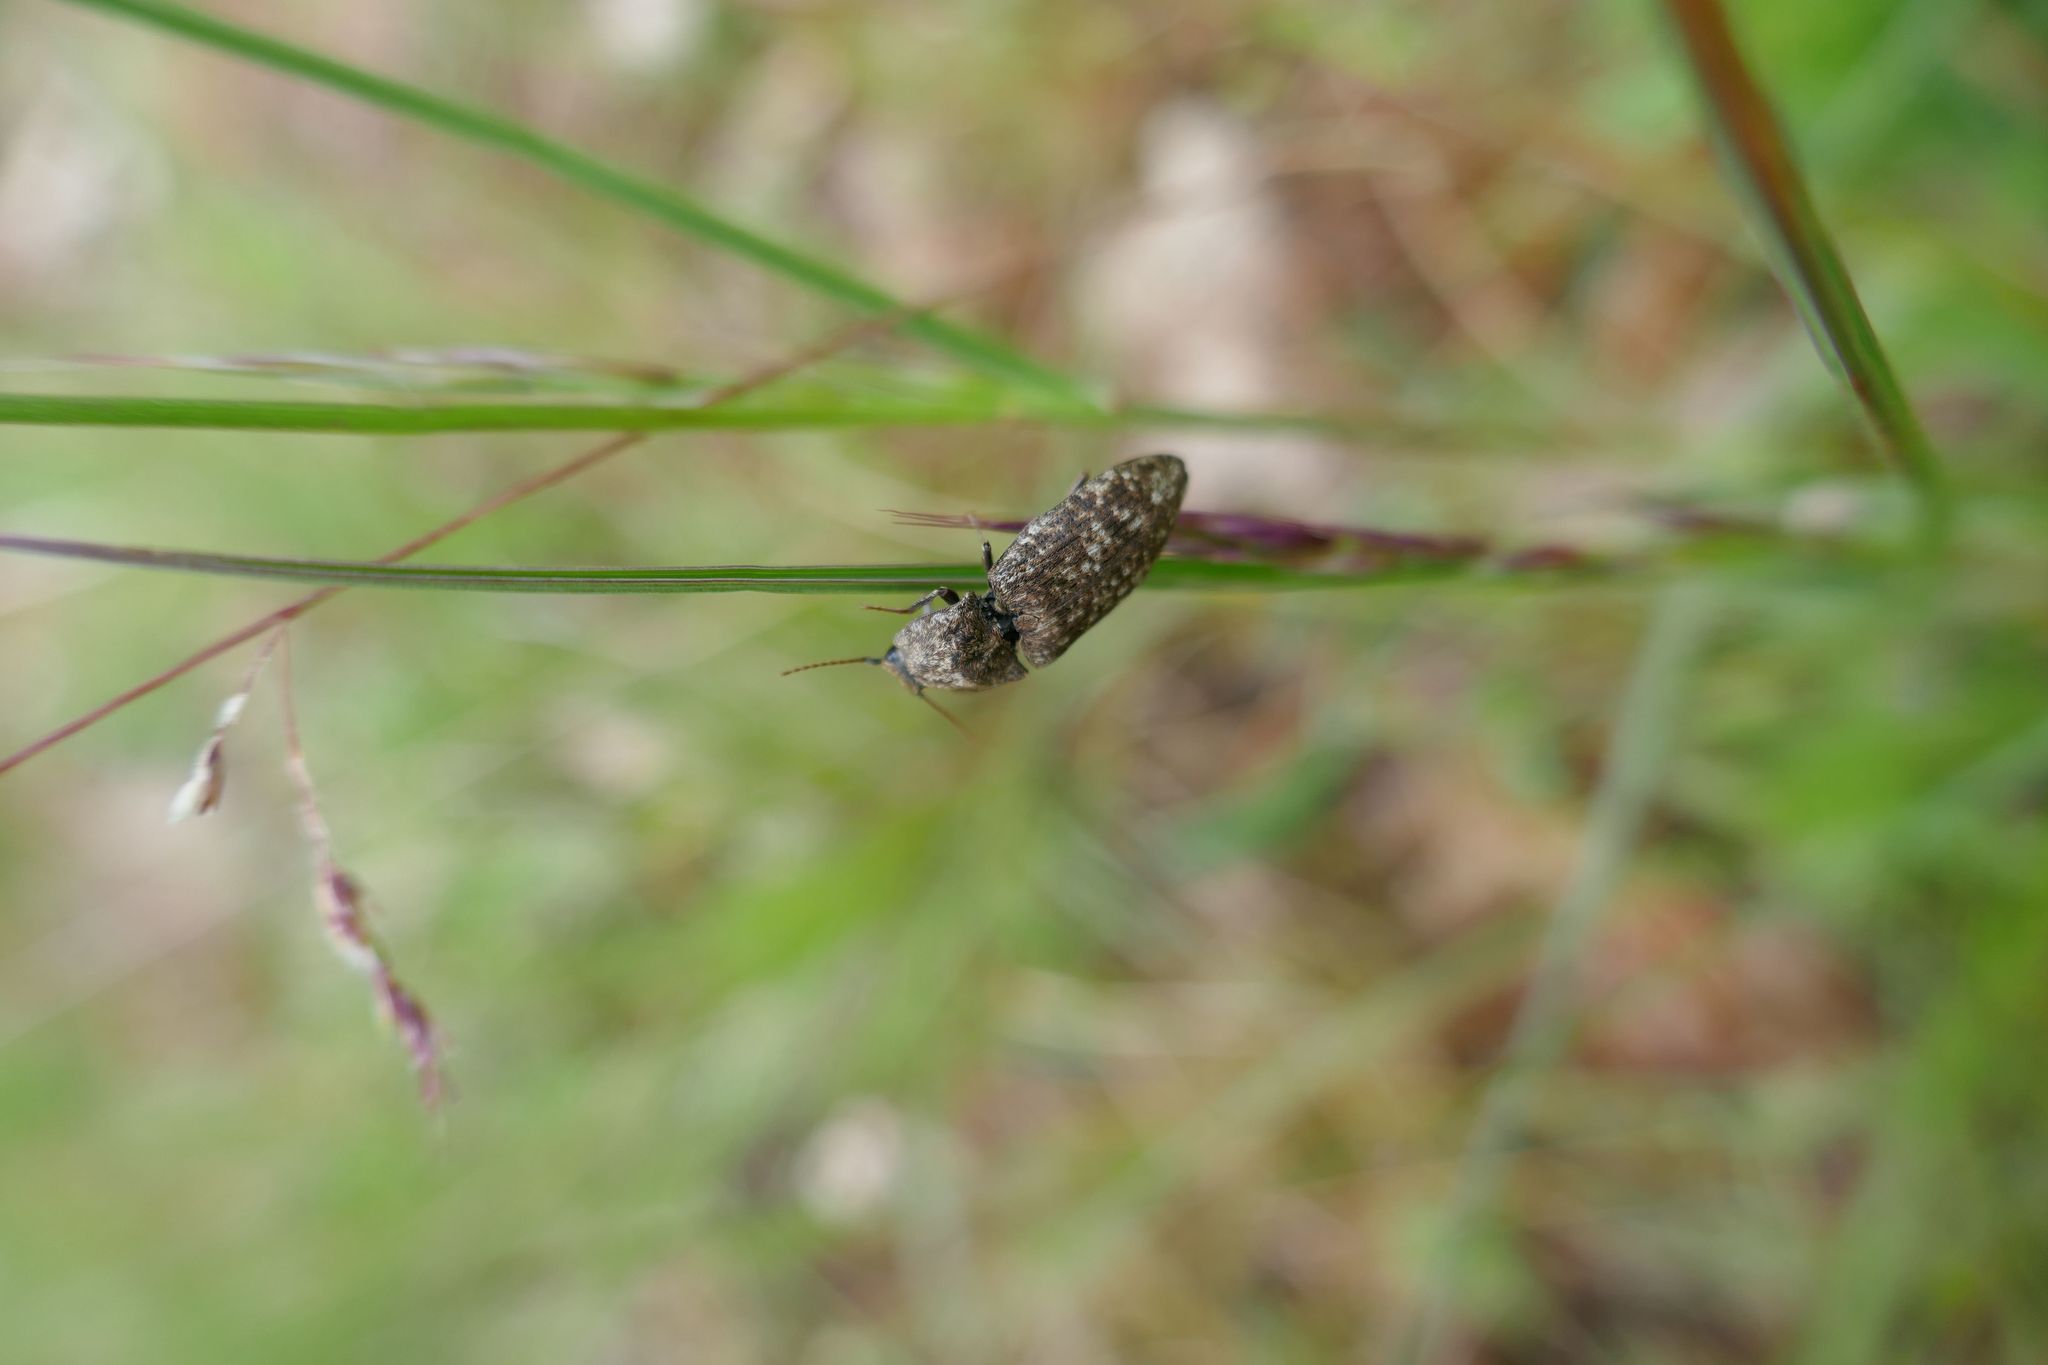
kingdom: Animalia
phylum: Arthropoda
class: Insecta
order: Coleoptera
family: Elateridae
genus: Agrypnus
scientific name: Agrypnus murinus
